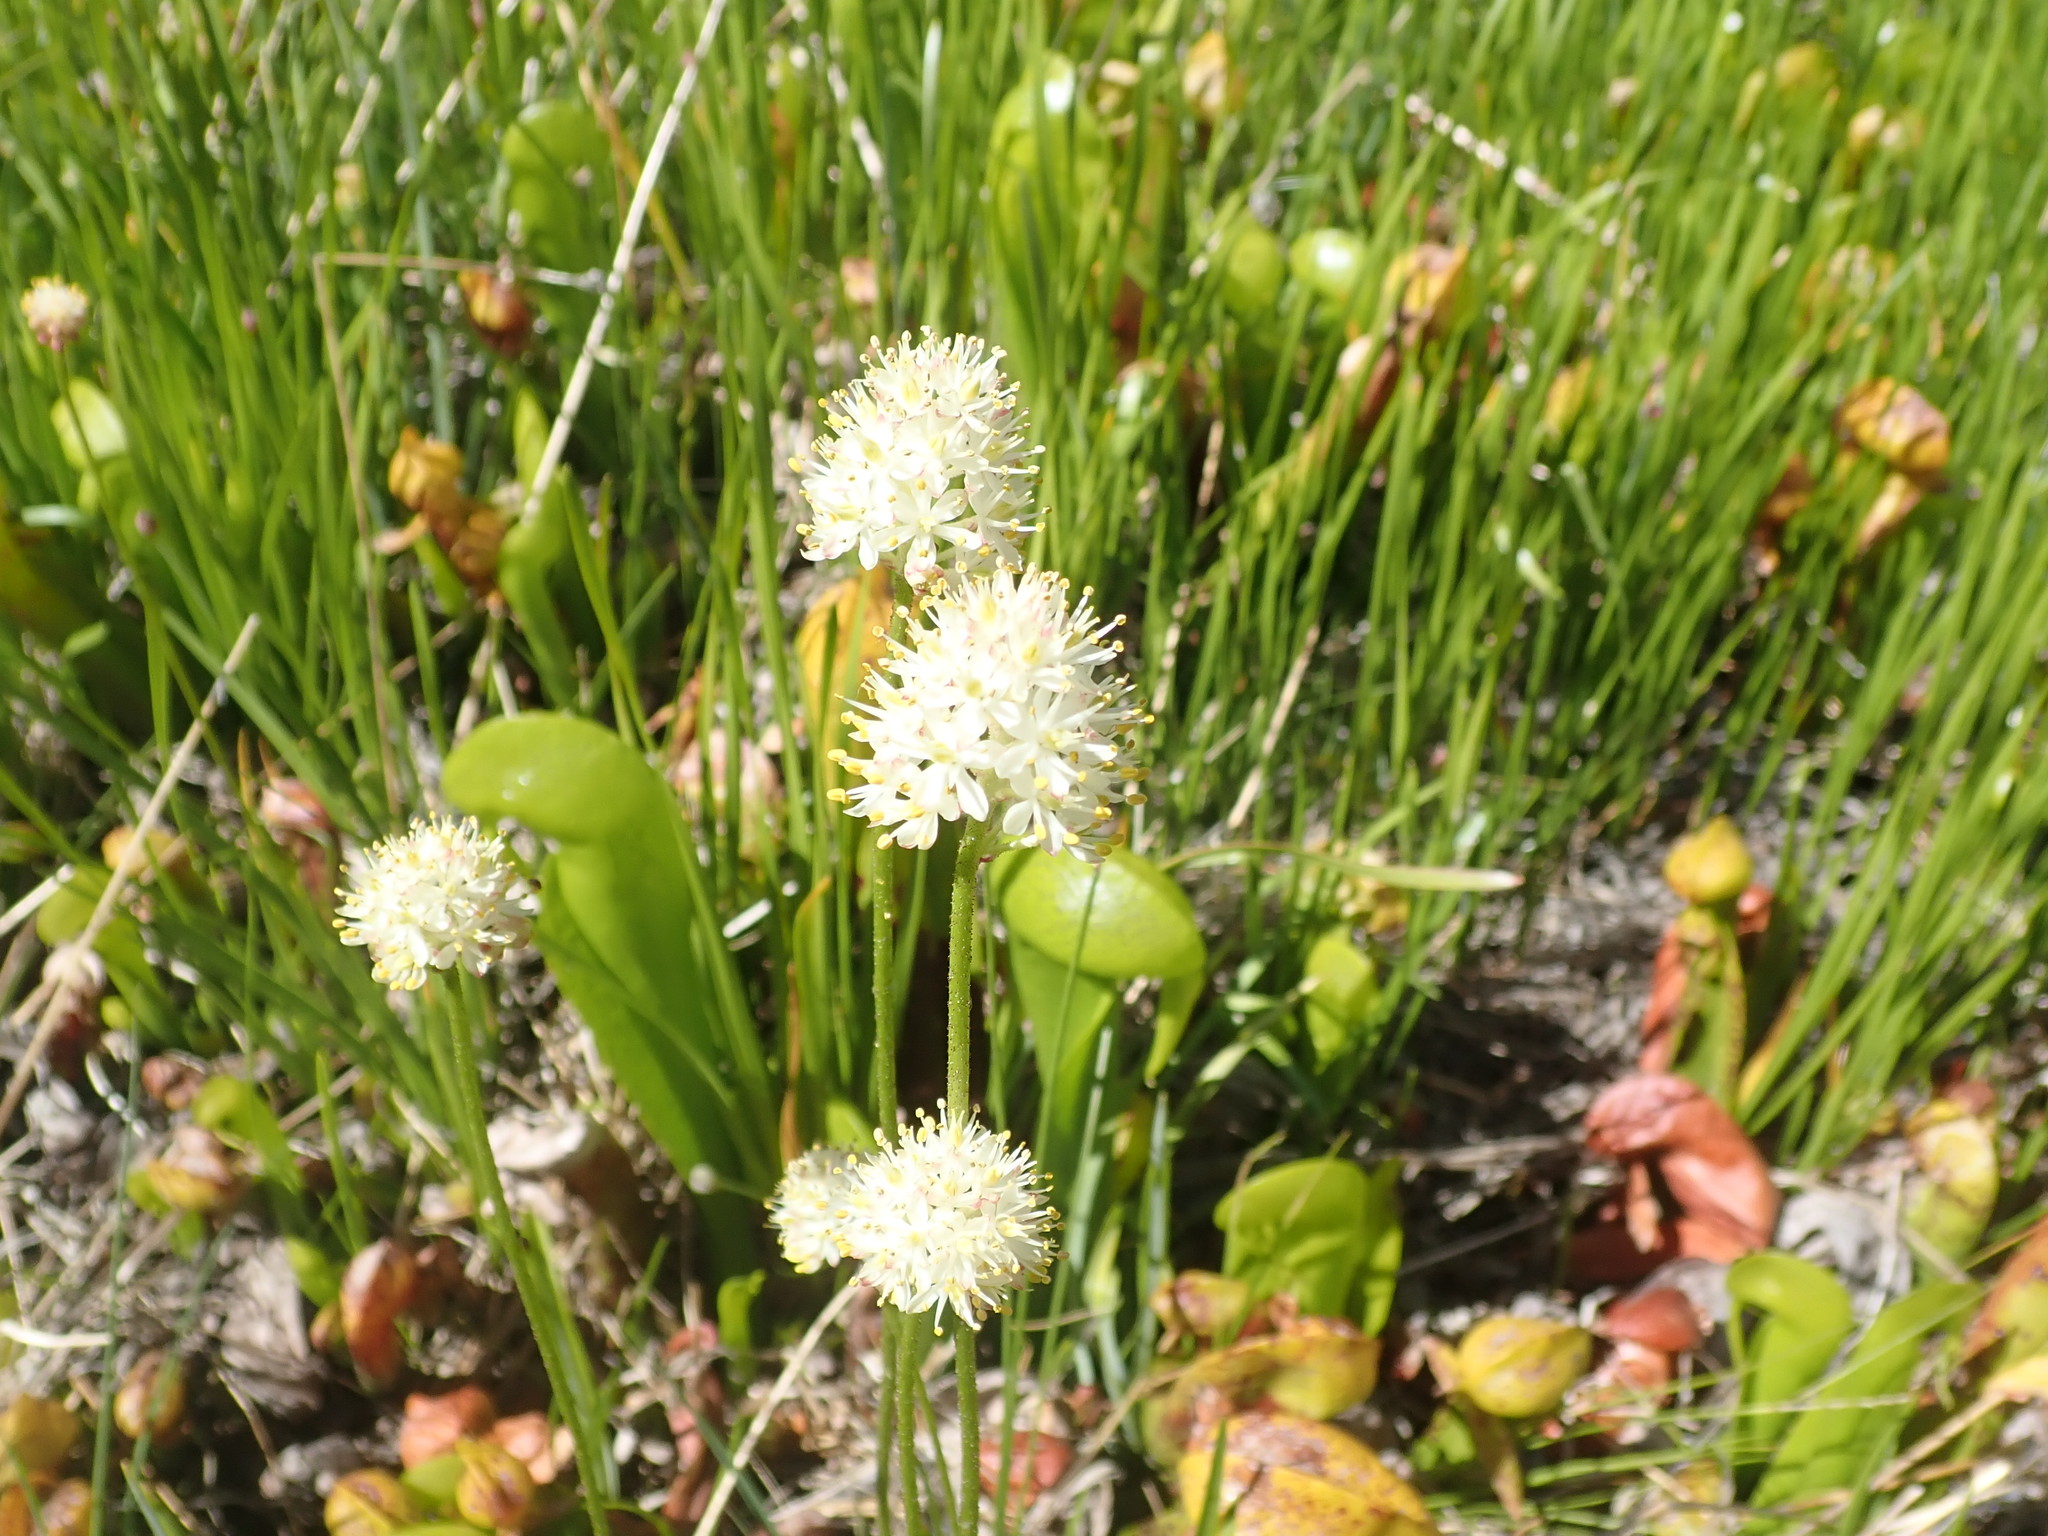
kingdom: Plantae
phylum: Tracheophyta
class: Liliopsida
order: Alismatales
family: Tofieldiaceae
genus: Triantha
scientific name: Triantha occidentalis
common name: Western false asphodel
